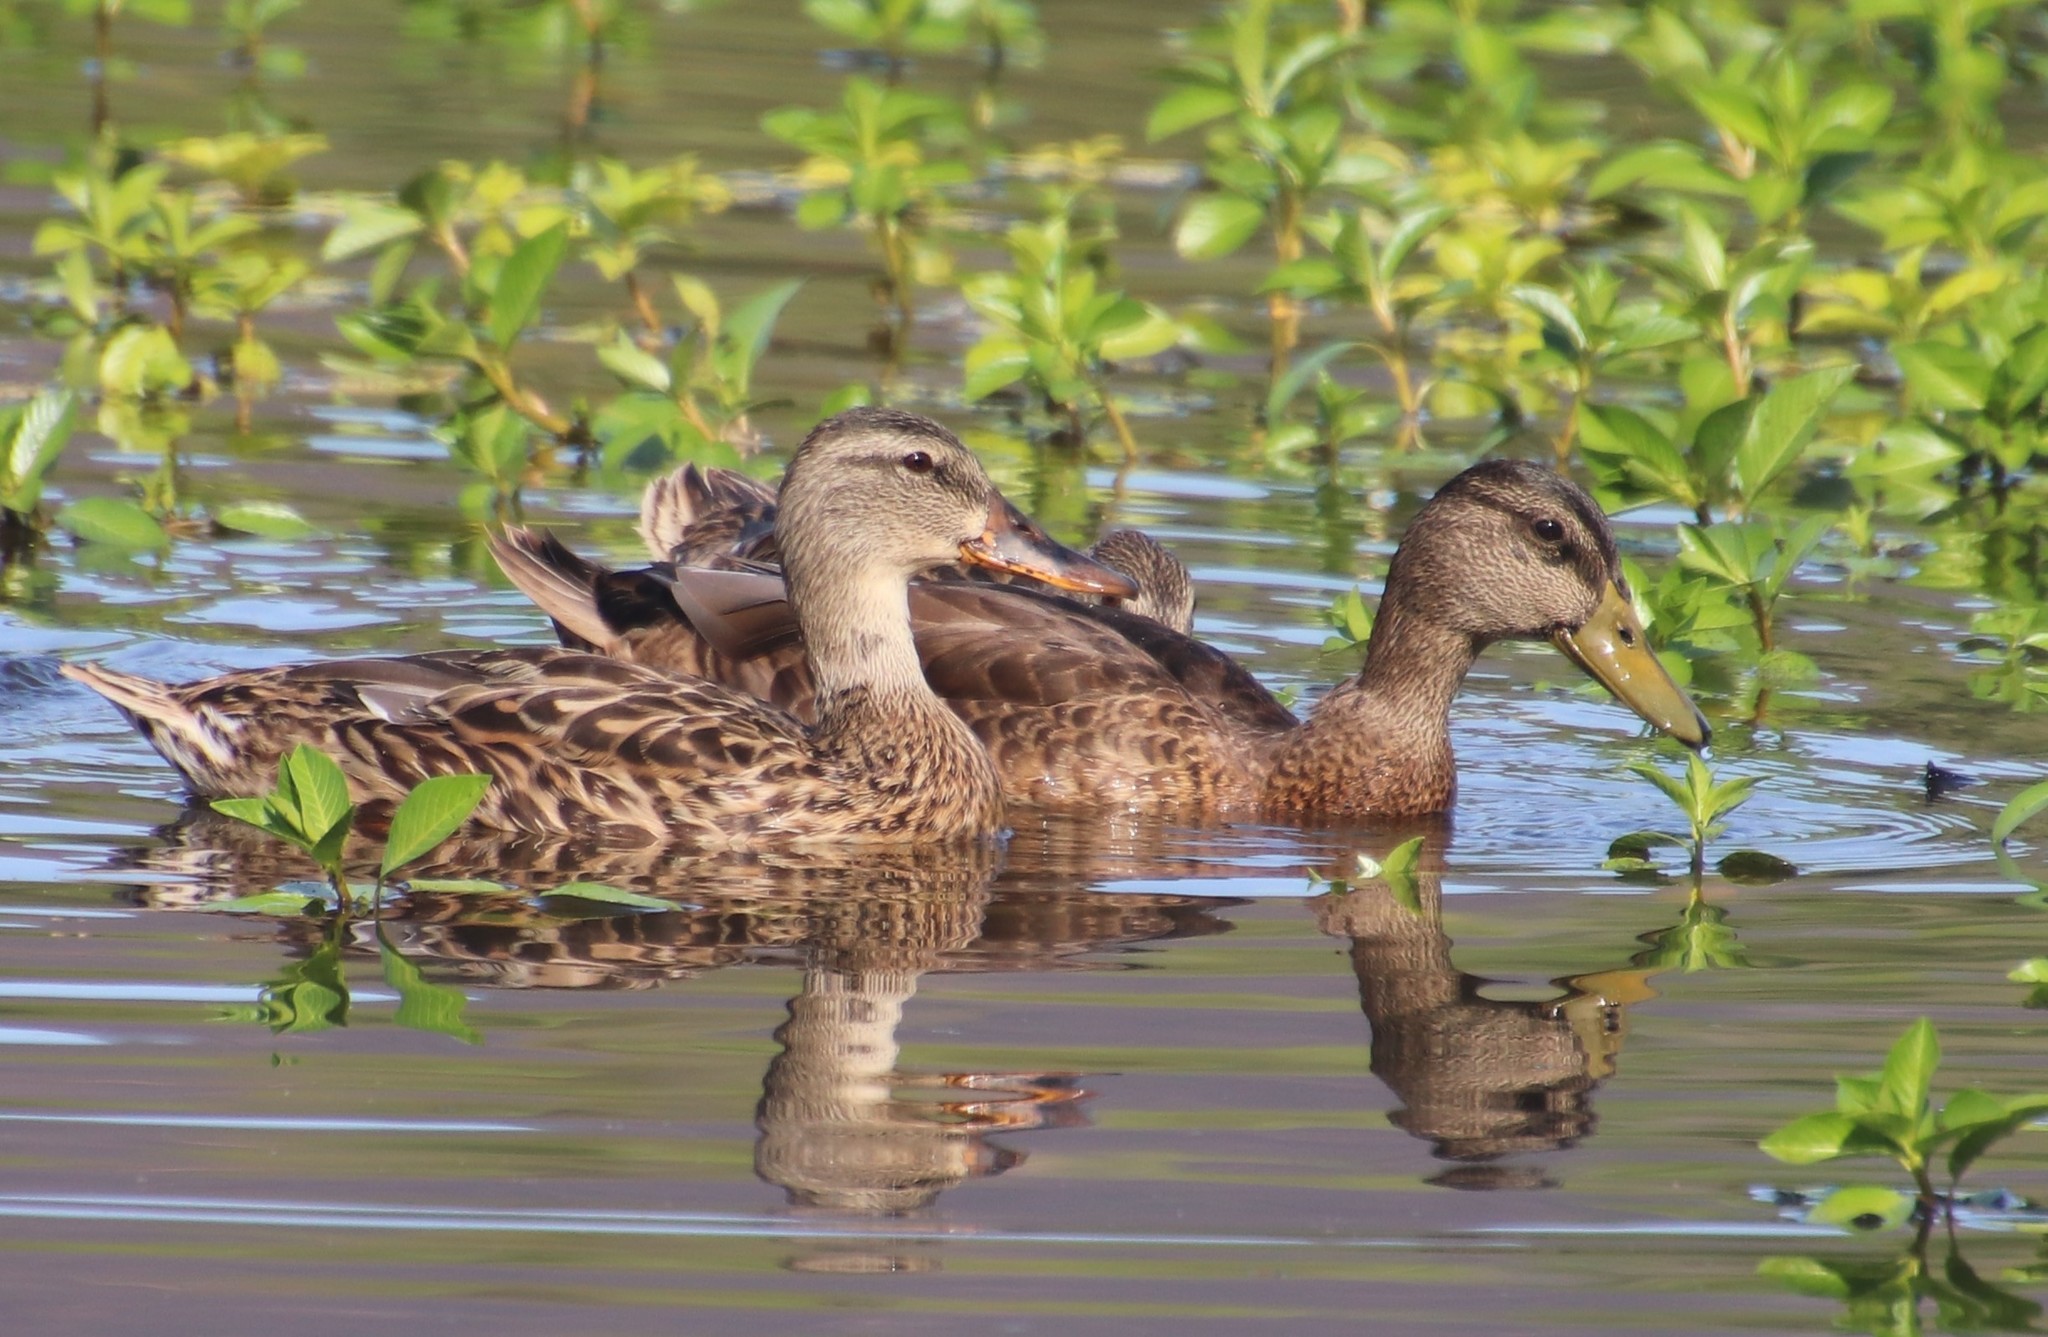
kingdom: Animalia
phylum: Chordata
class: Aves
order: Anseriformes
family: Anatidae
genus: Anas
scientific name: Anas platyrhynchos
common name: Mallard
